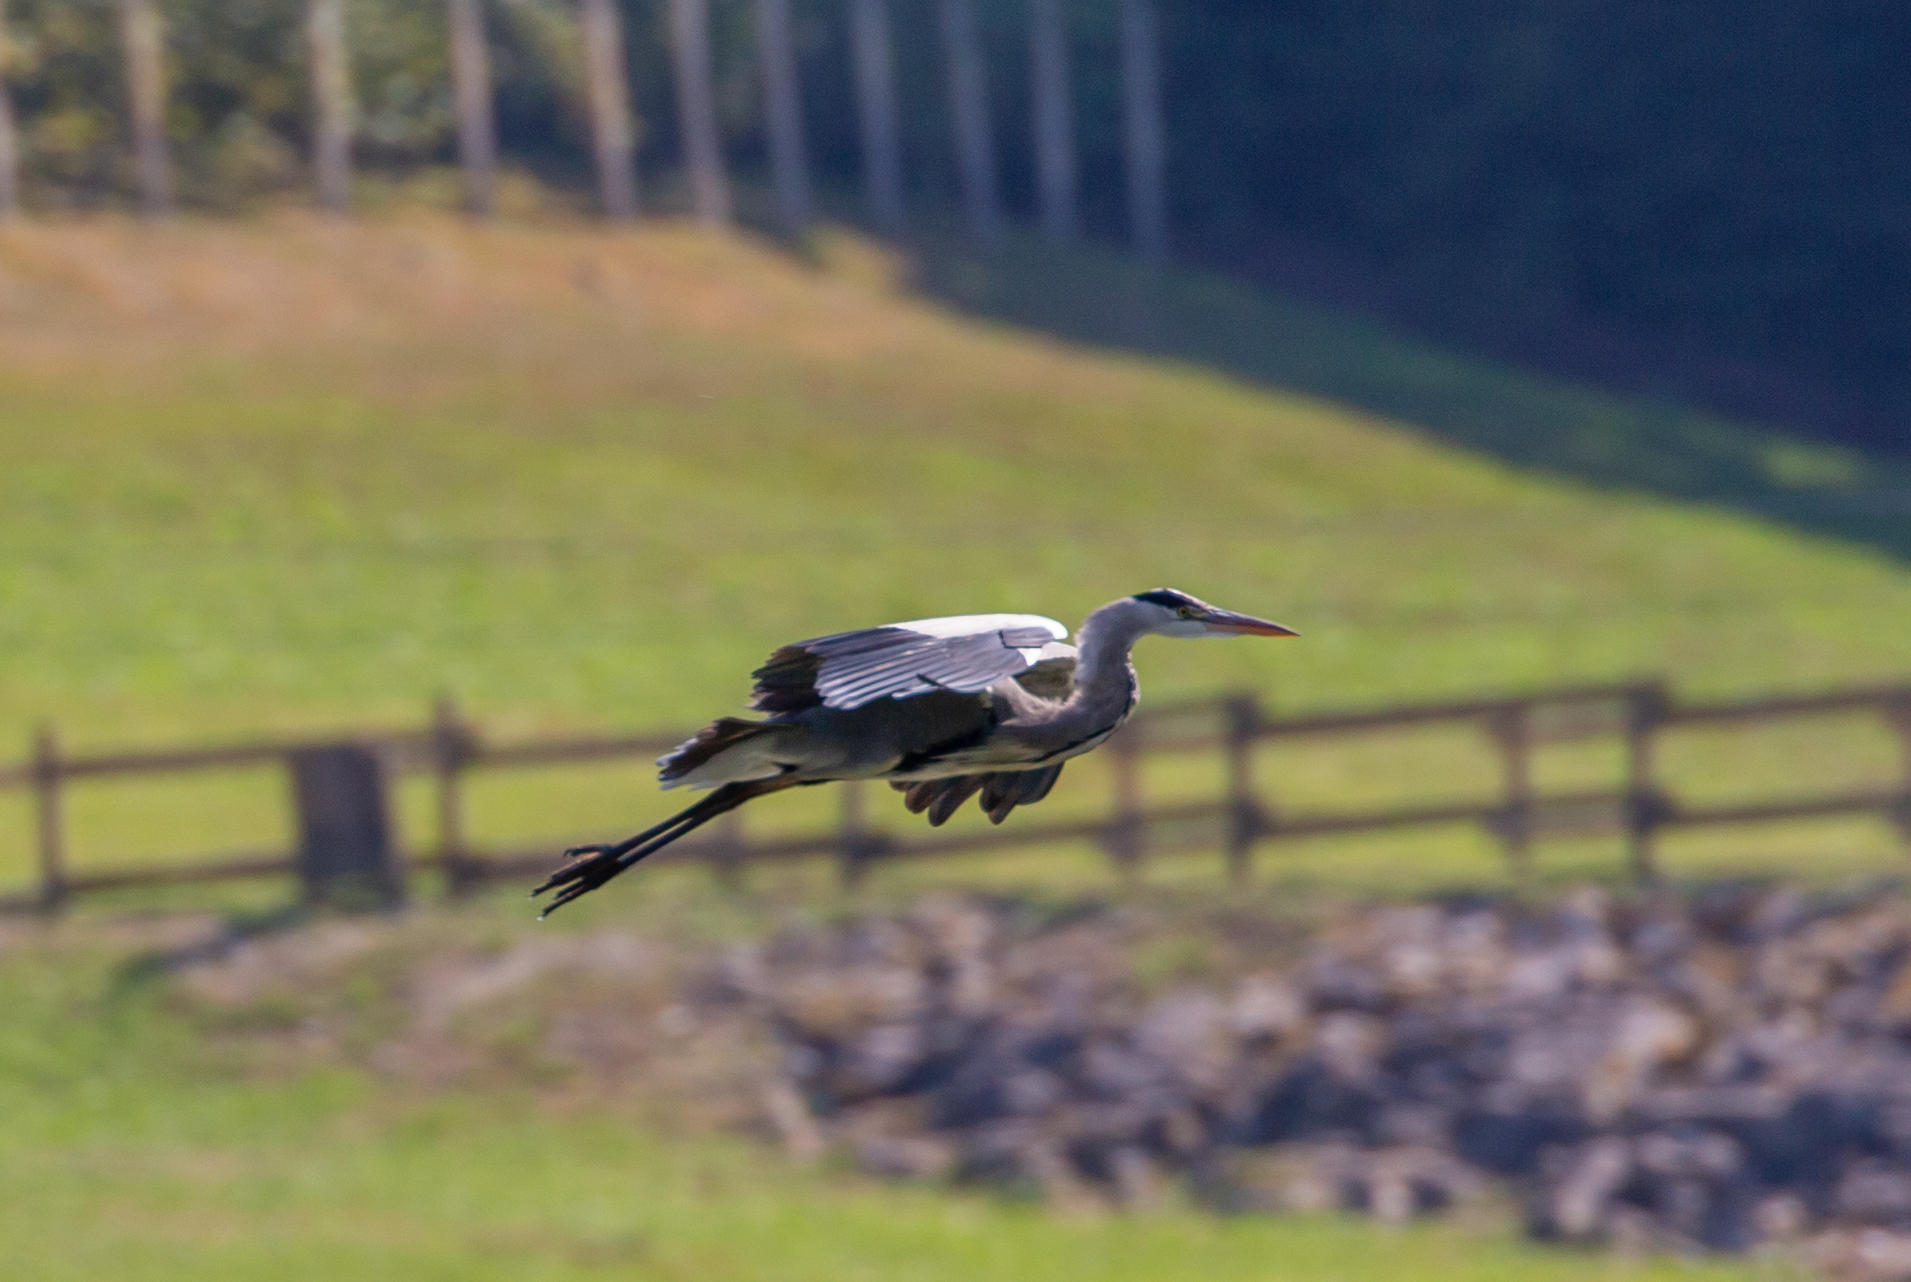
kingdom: Animalia
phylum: Chordata
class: Aves
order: Pelecaniformes
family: Ardeidae
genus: Ardea
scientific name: Ardea cinerea
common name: Grey heron
